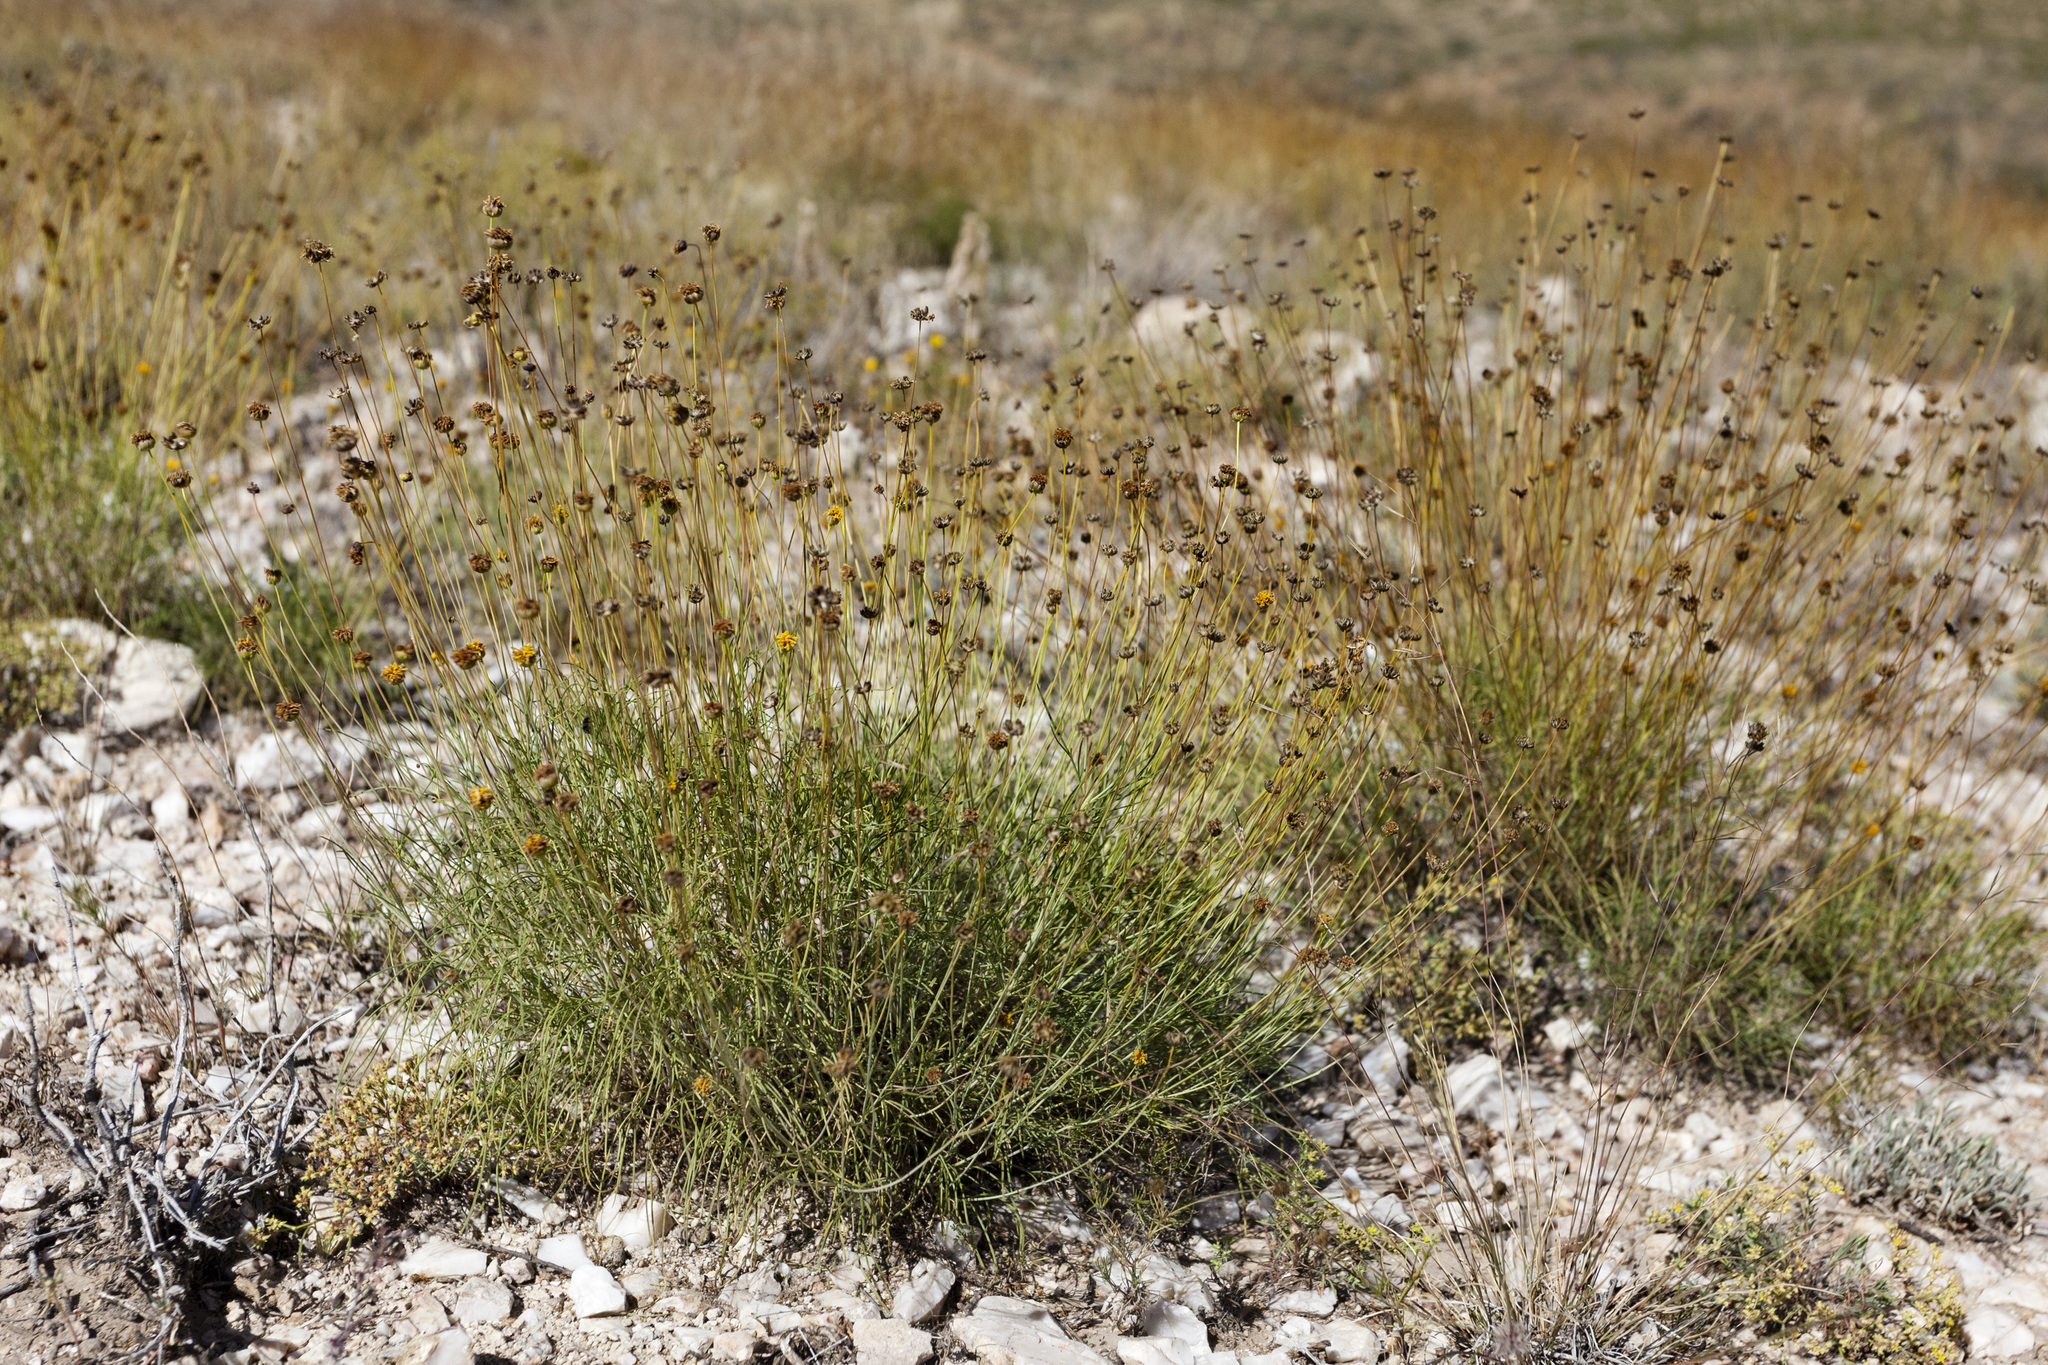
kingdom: Plantae
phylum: Tracheophyta
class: Magnoliopsida
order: Asterales
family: Asteraceae
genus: Thelesperma
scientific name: Thelesperma longipes
